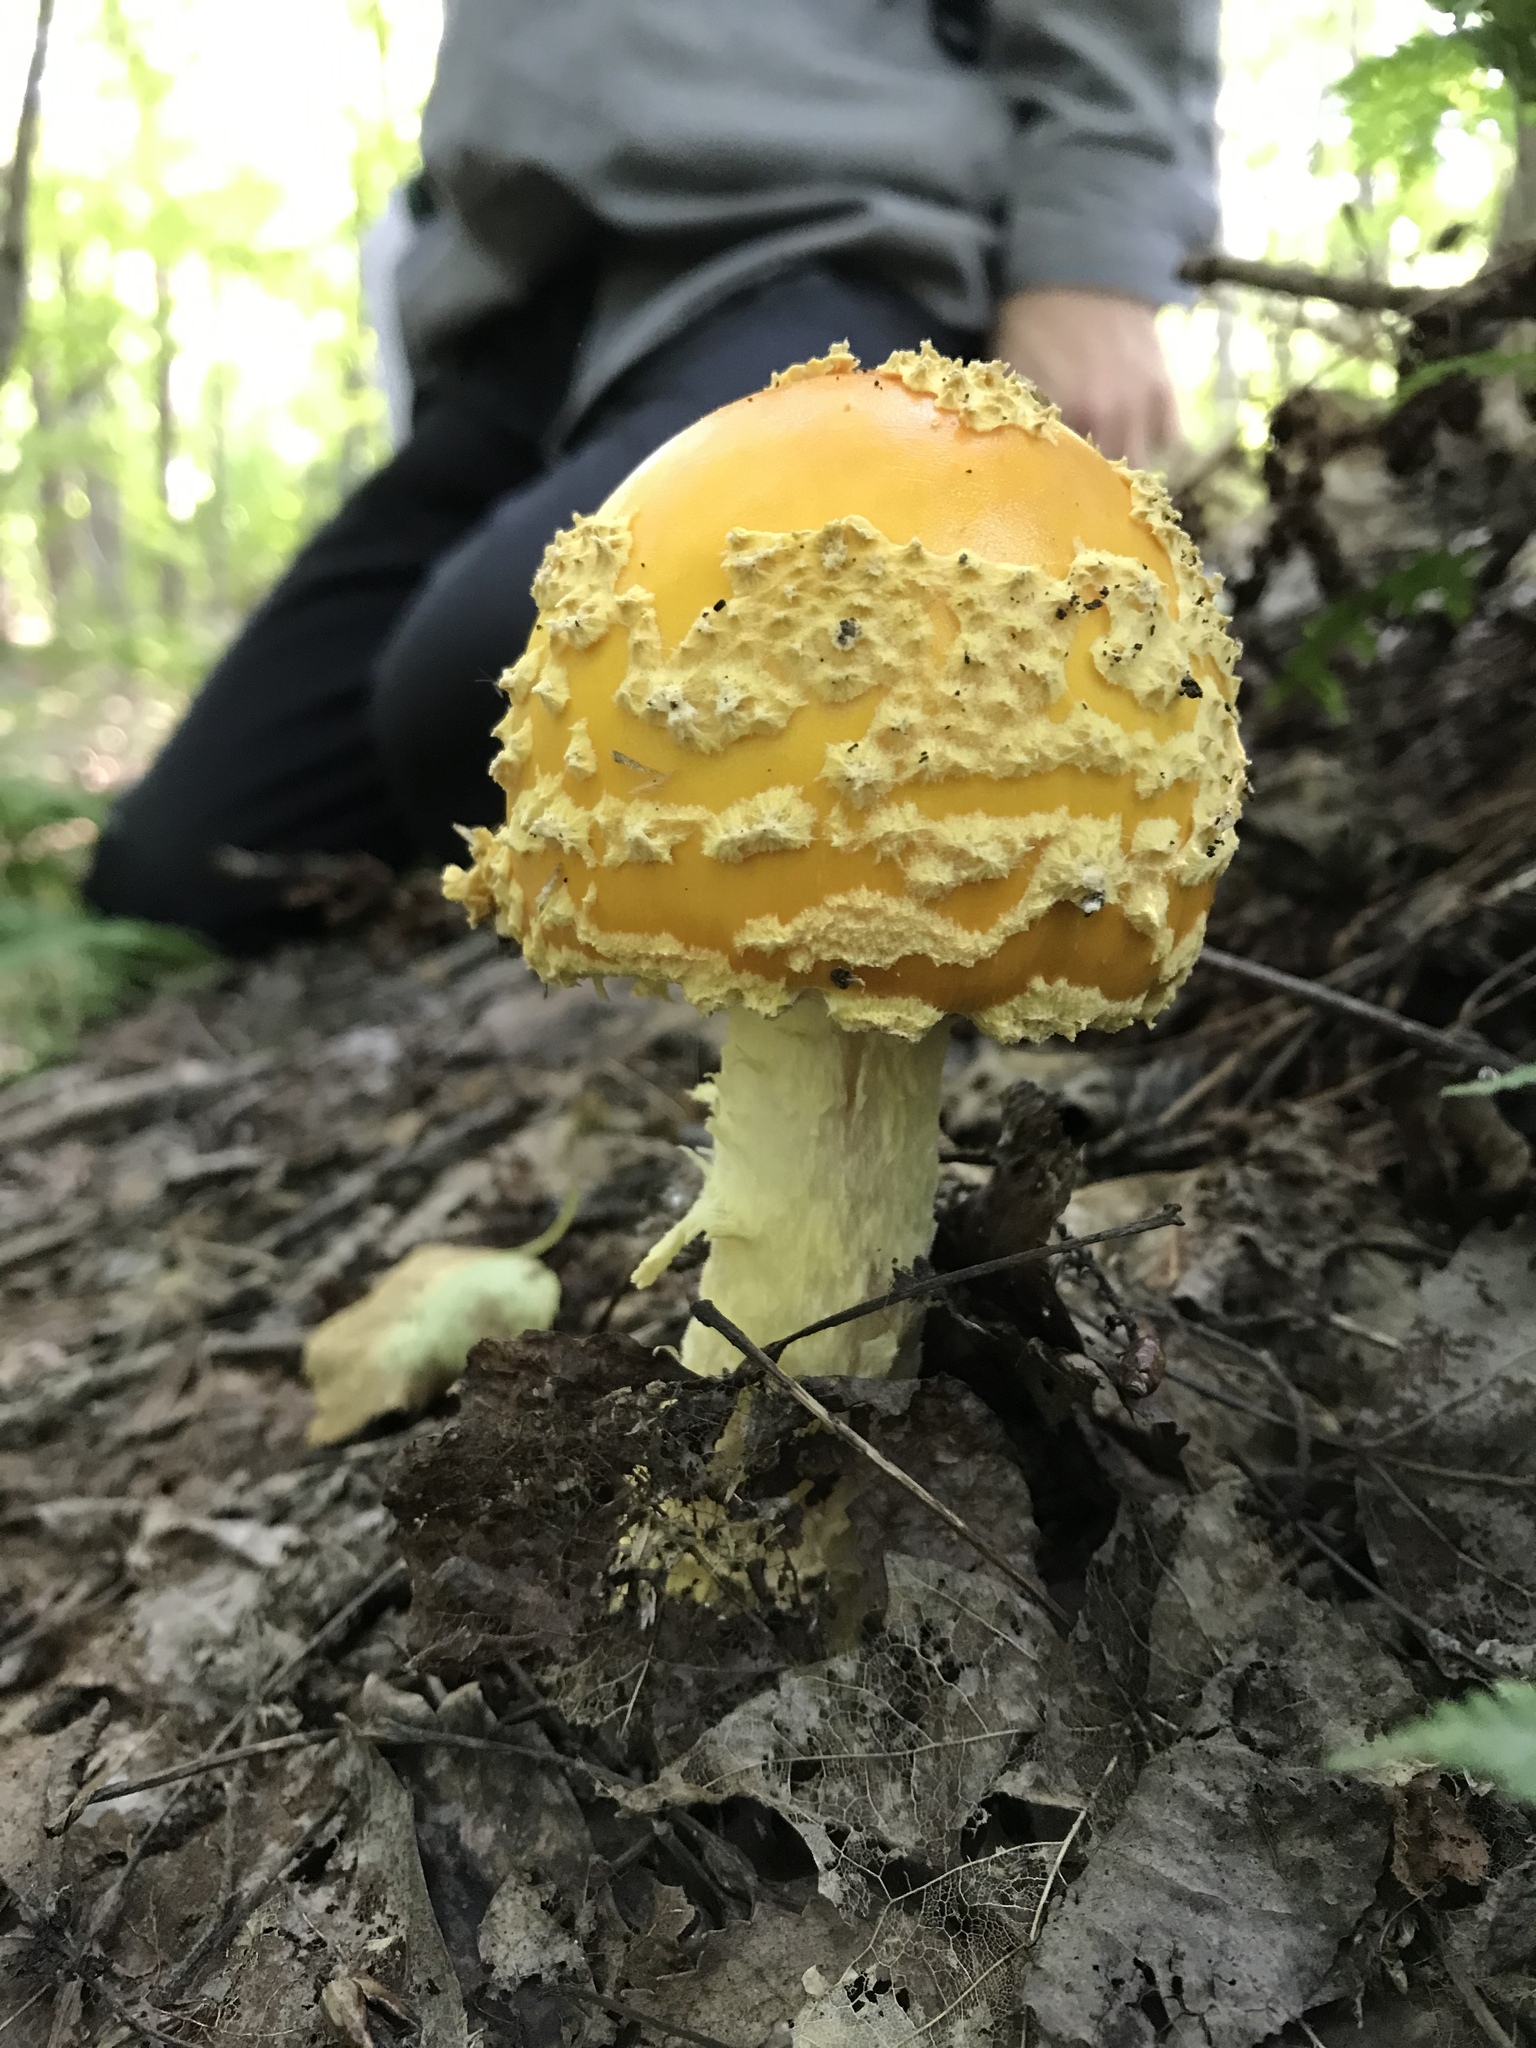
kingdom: Fungi
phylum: Basidiomycota
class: Agaricomycetes
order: Agaricales
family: Amanitaceae
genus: Amanita
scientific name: Amanita muscaria
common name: Fly agaric
